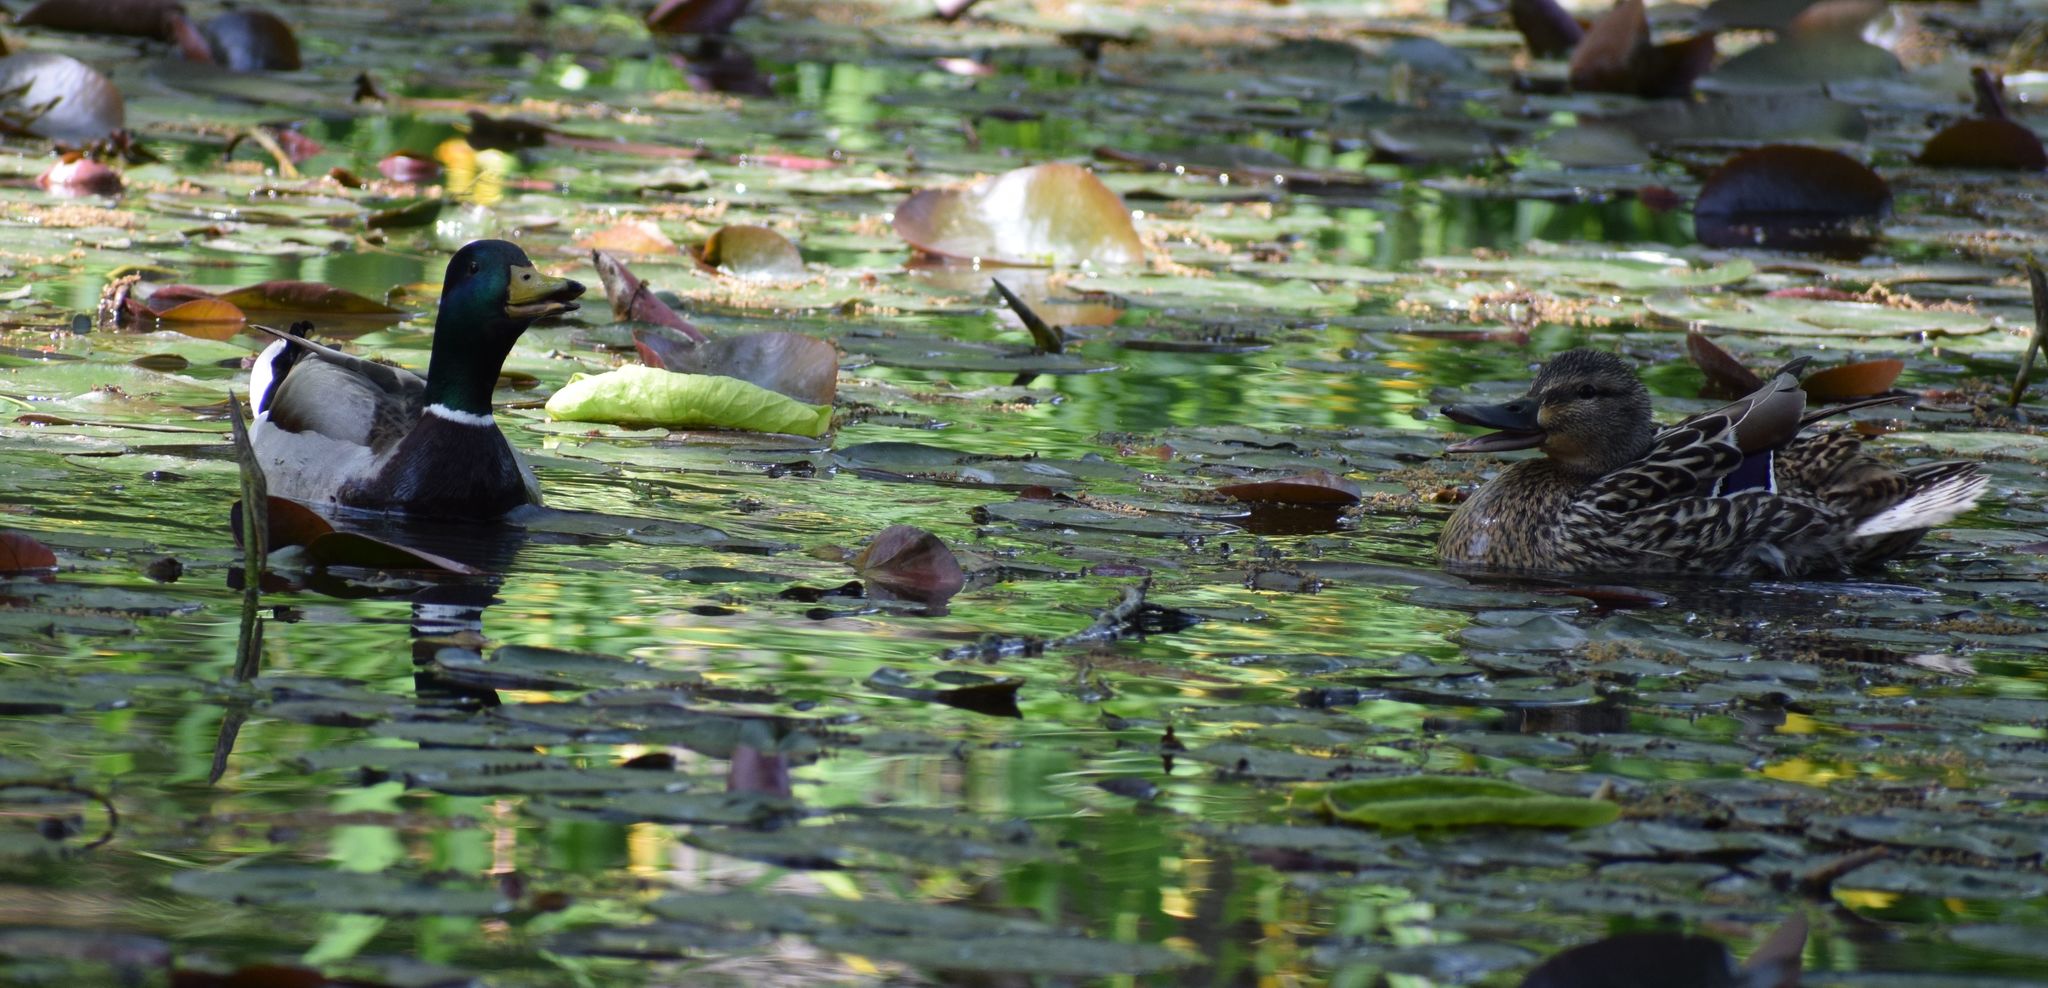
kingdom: Animalia
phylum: Chordata
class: Aves
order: Anseriformes
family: Anatidae
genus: Anas
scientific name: Anas platyrhynchos
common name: Mallard
